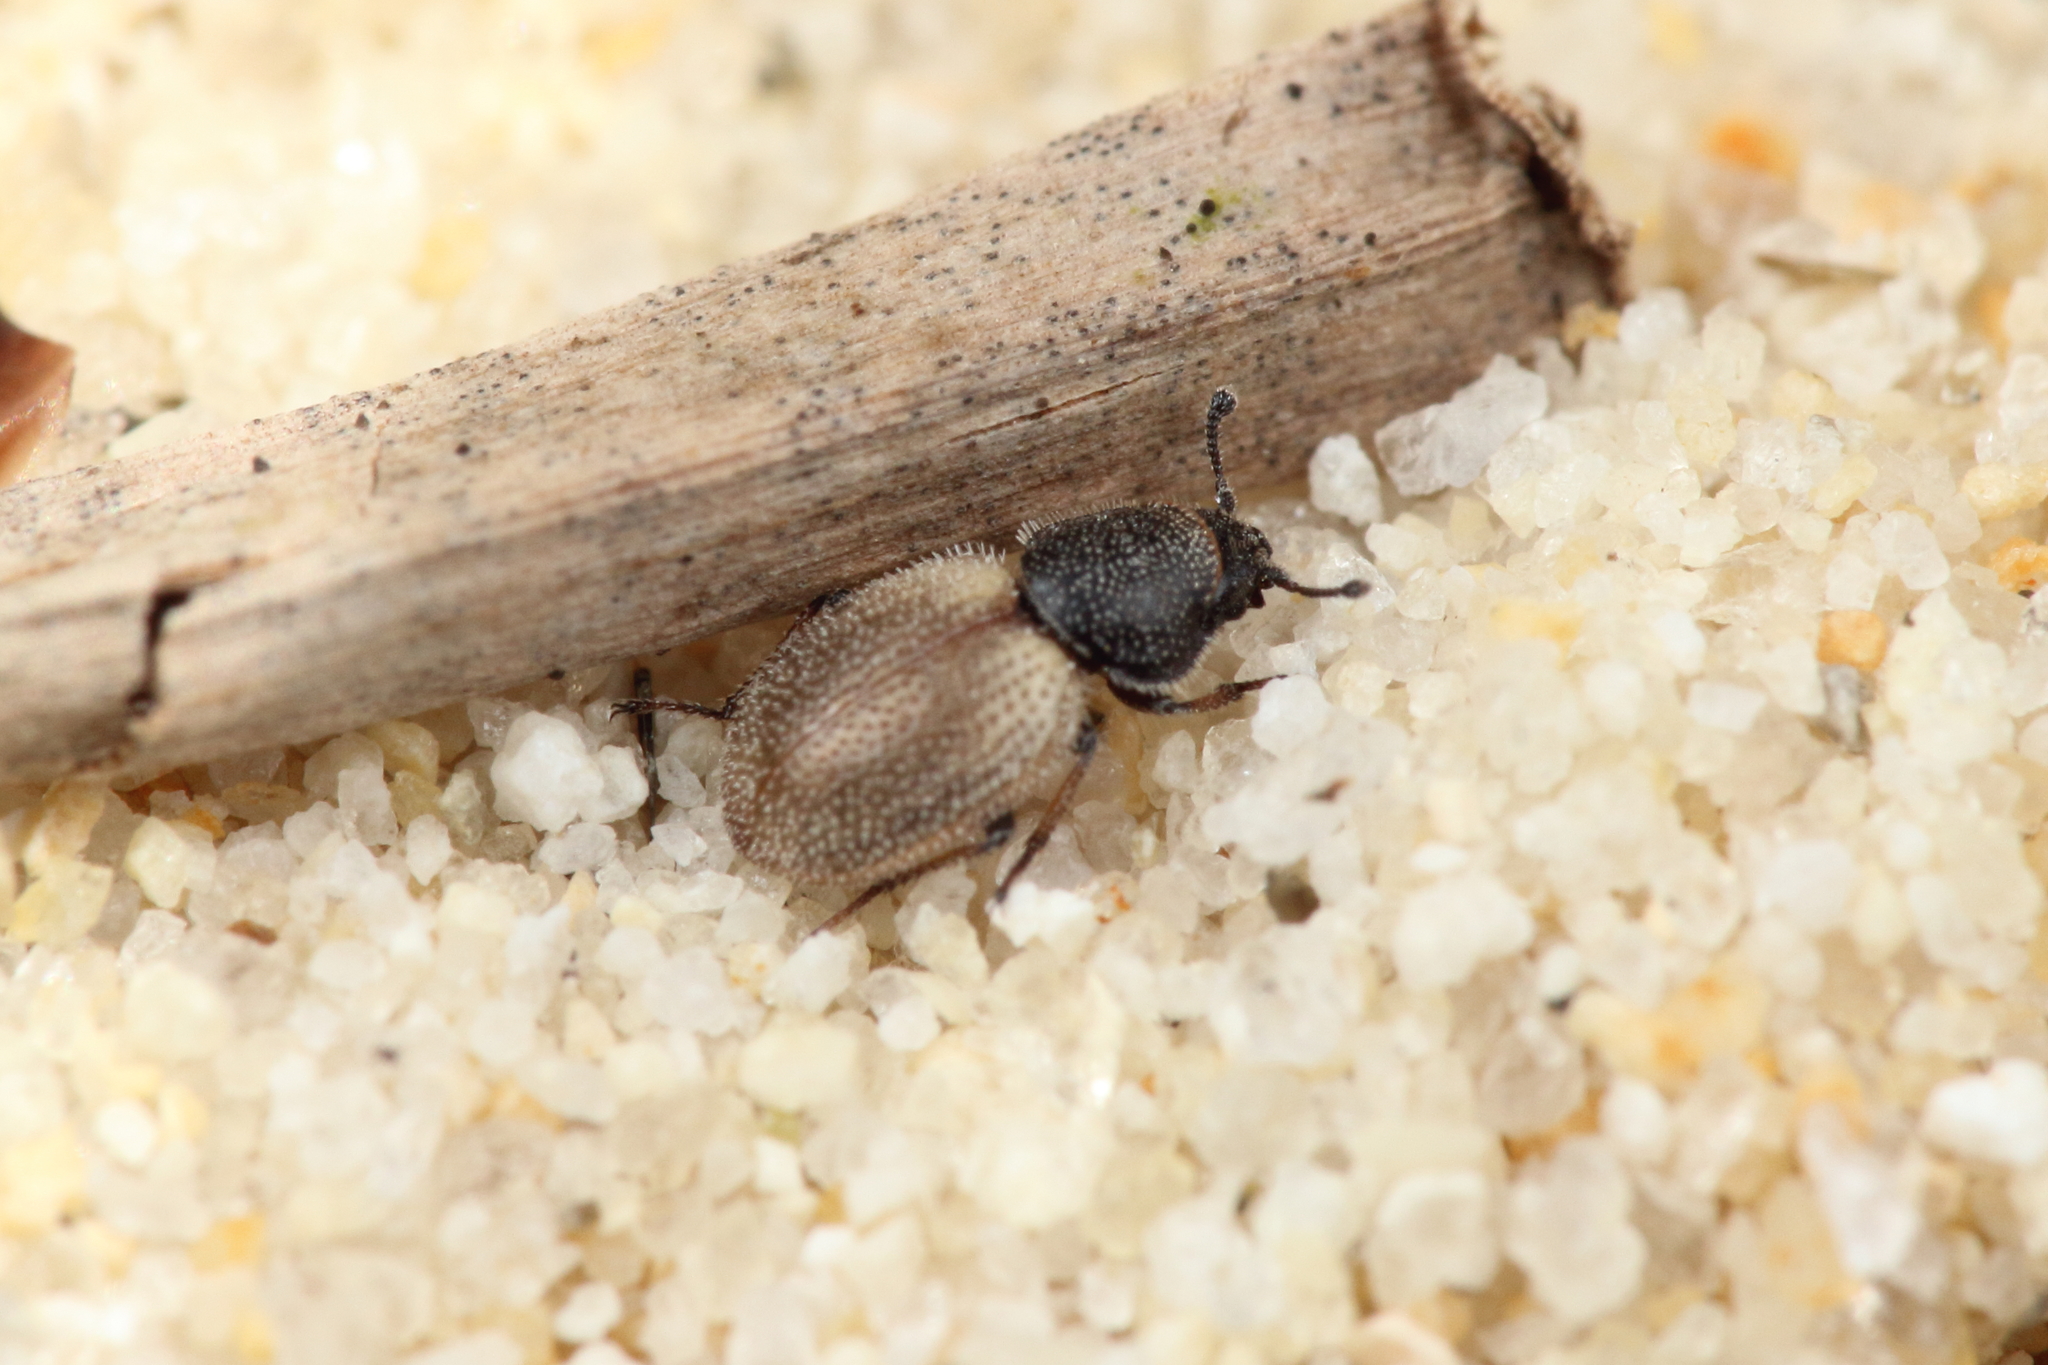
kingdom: Animalia
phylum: Arthropoda
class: Insecta
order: Coleoptera
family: Phycosecidae
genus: Phycosecis
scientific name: Phycosecis
